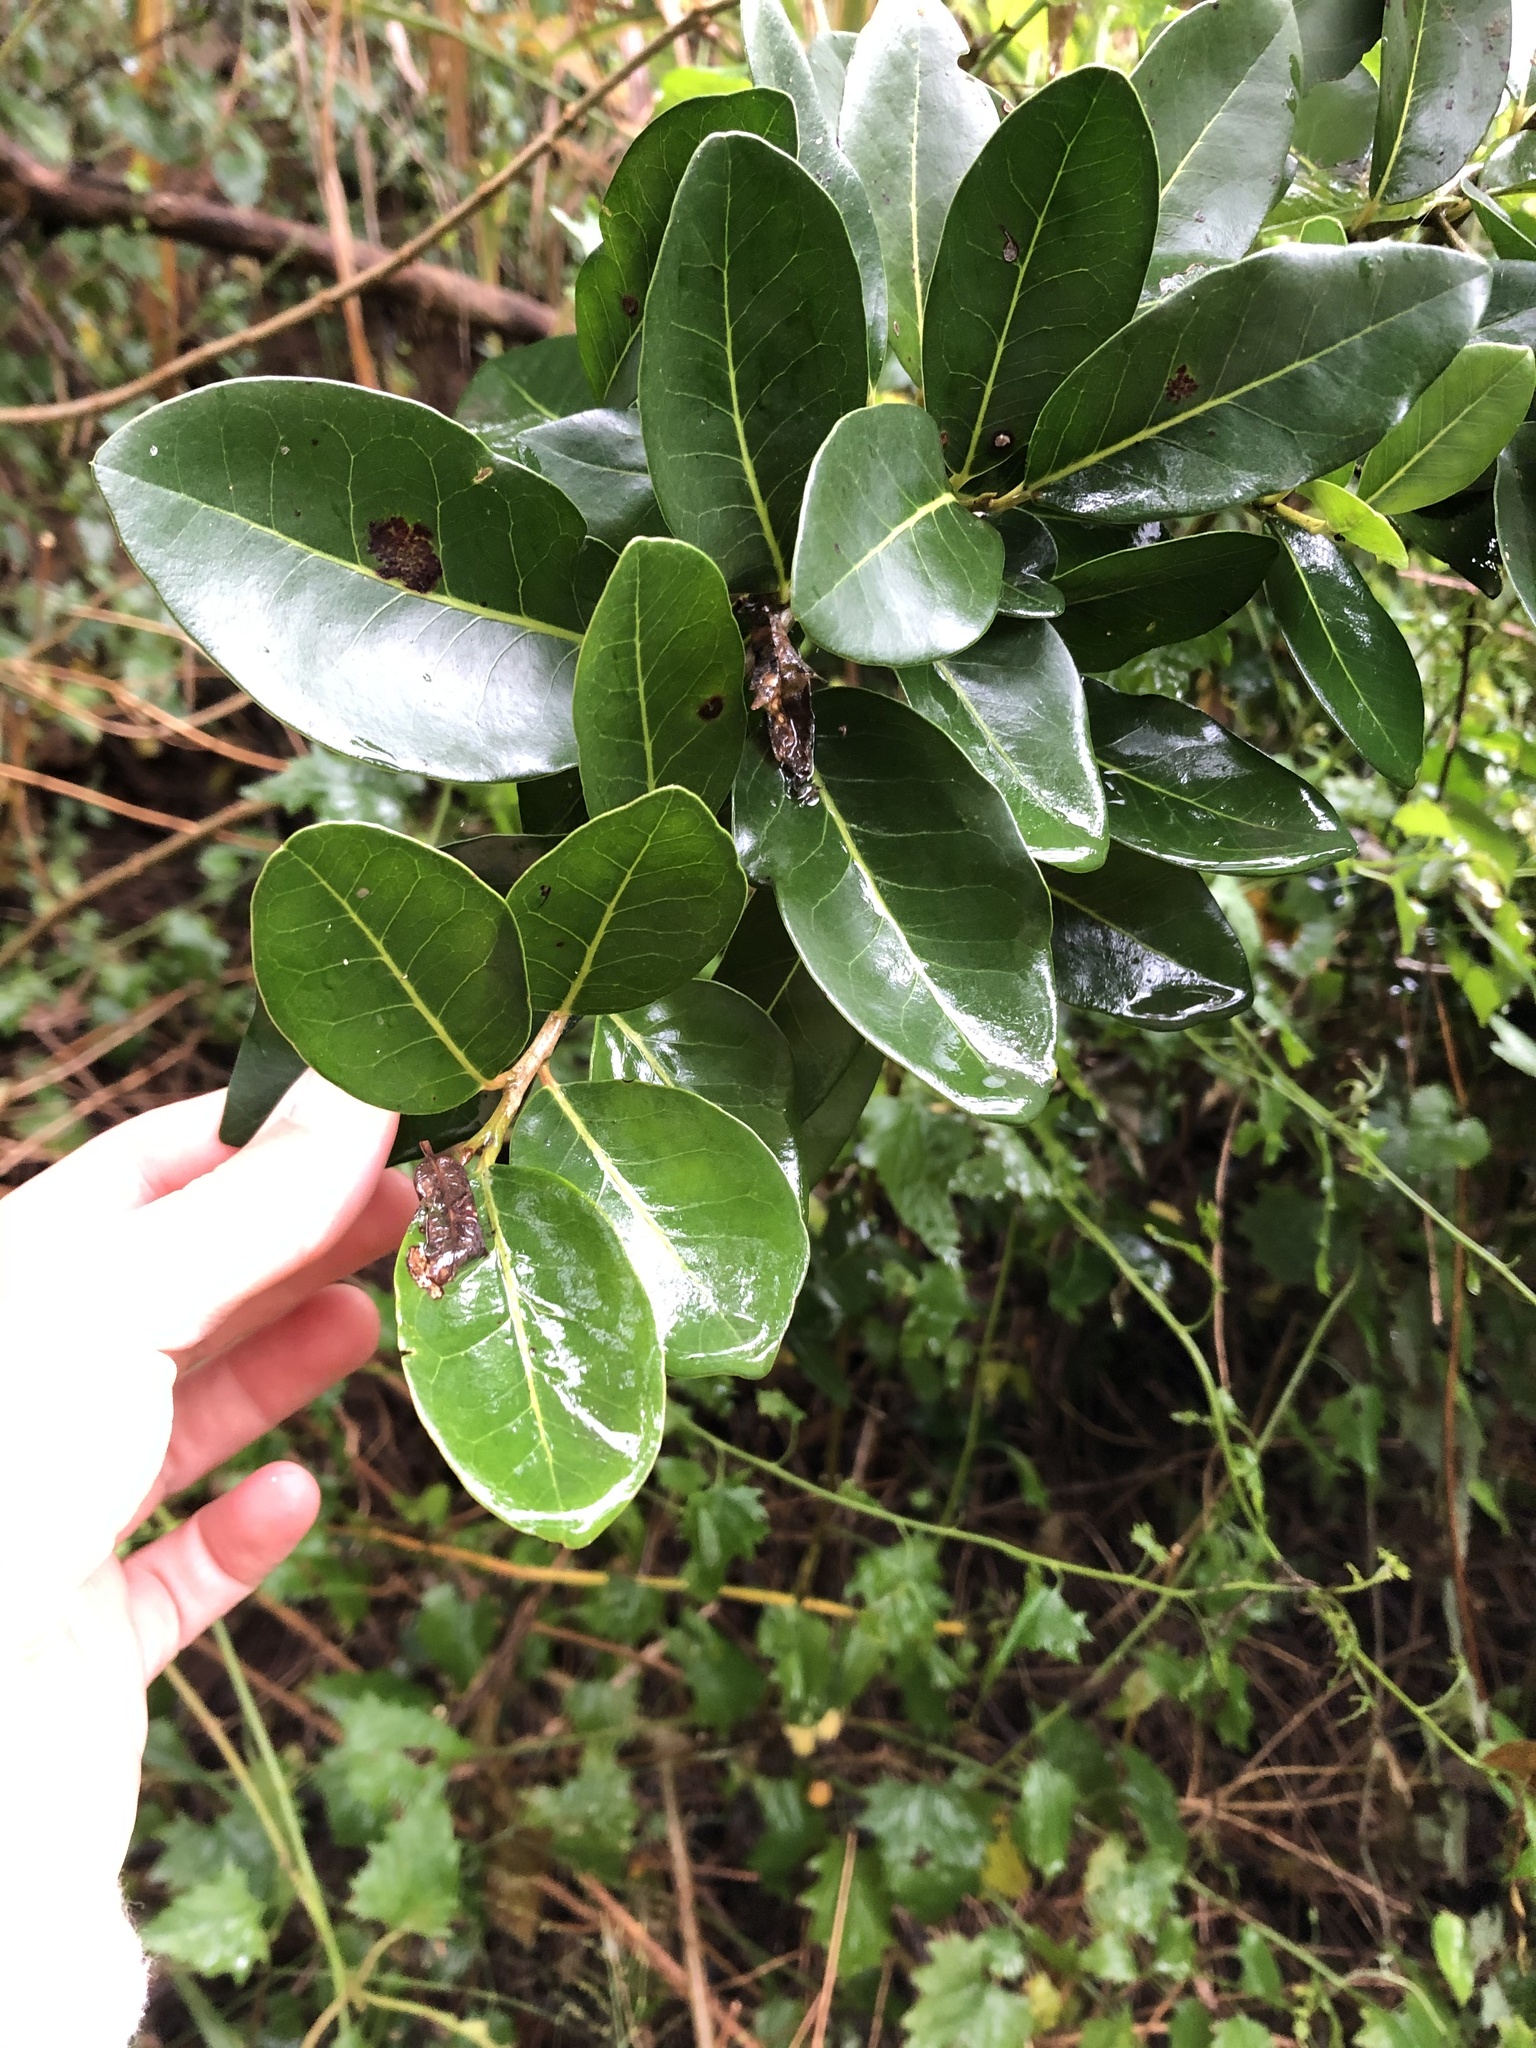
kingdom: Plantae
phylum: Tracheophyta
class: Magnoliopsida
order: Metteniusales
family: Metteniusaceae
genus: Apodytes
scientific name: Apodytes dimidiata
